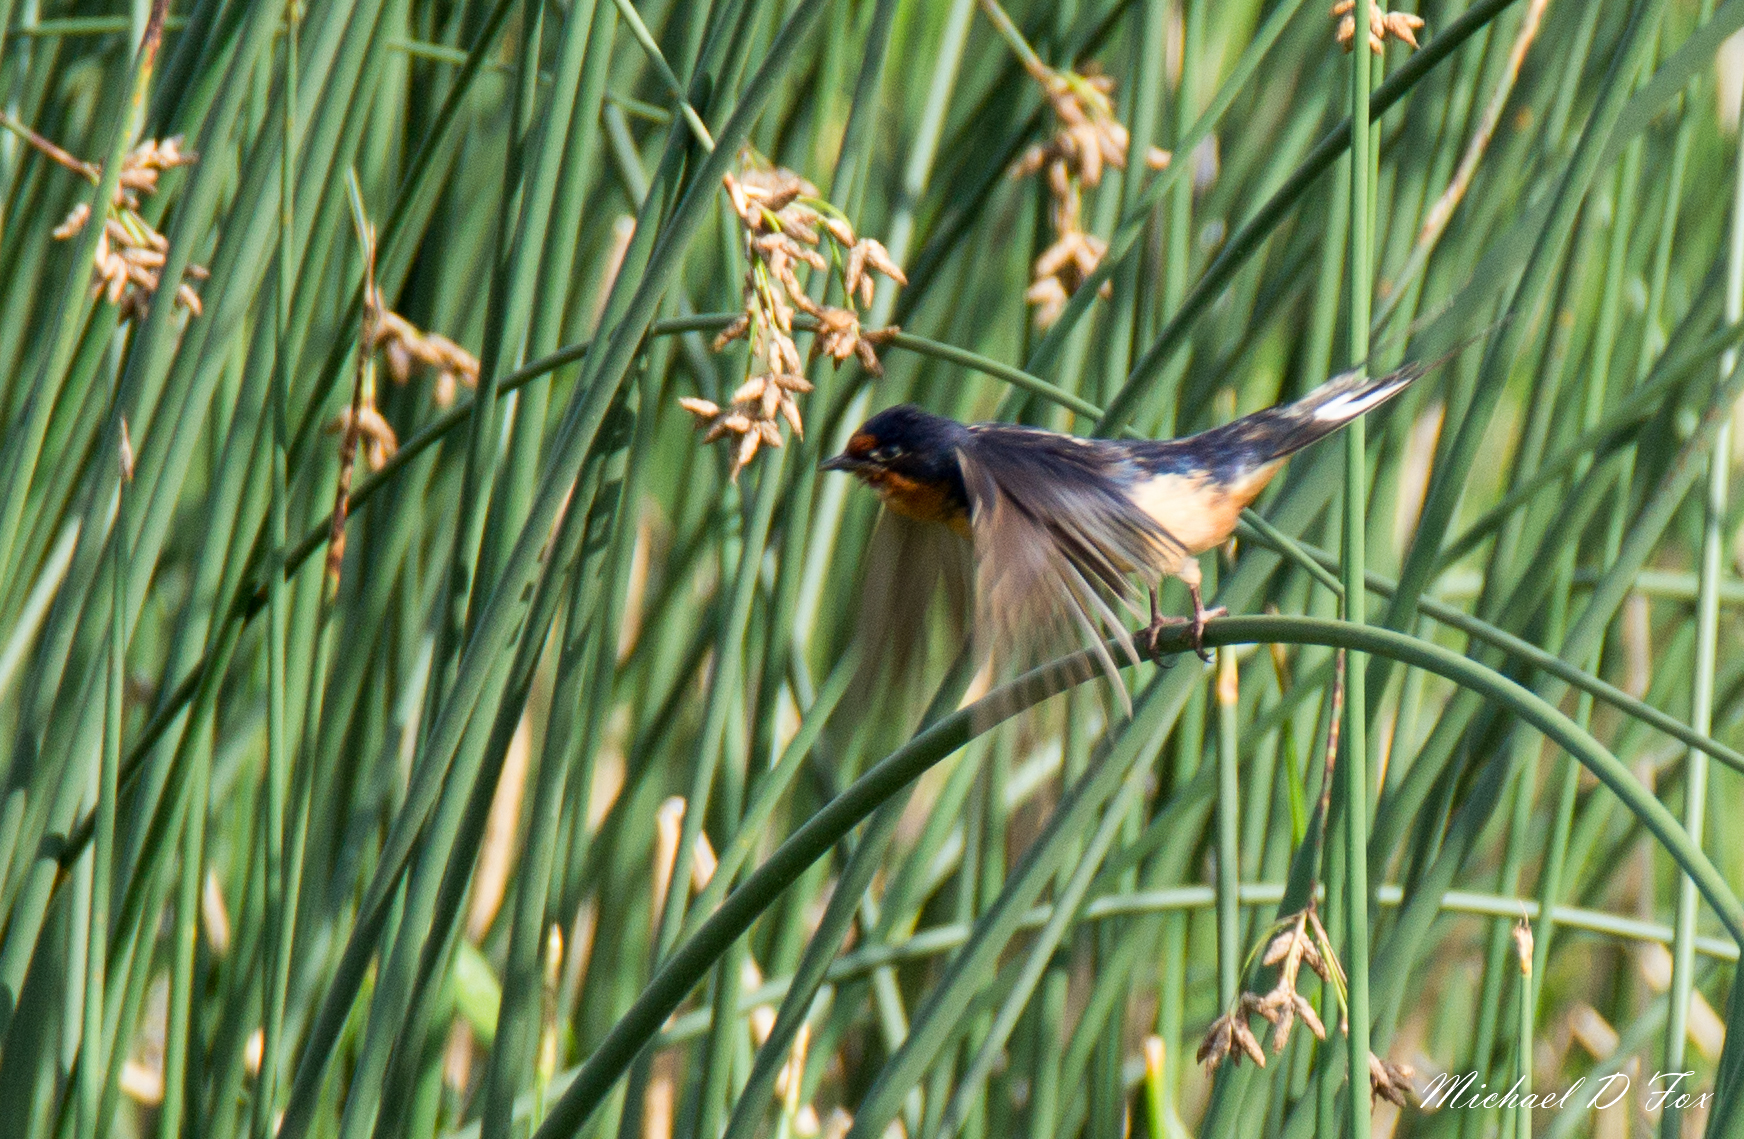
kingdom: Animalia
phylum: Chordata
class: Aves
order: Passeriformes
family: Hirundinidae
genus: Hirundo
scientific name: Hirundo rustica
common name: Barn swallow
